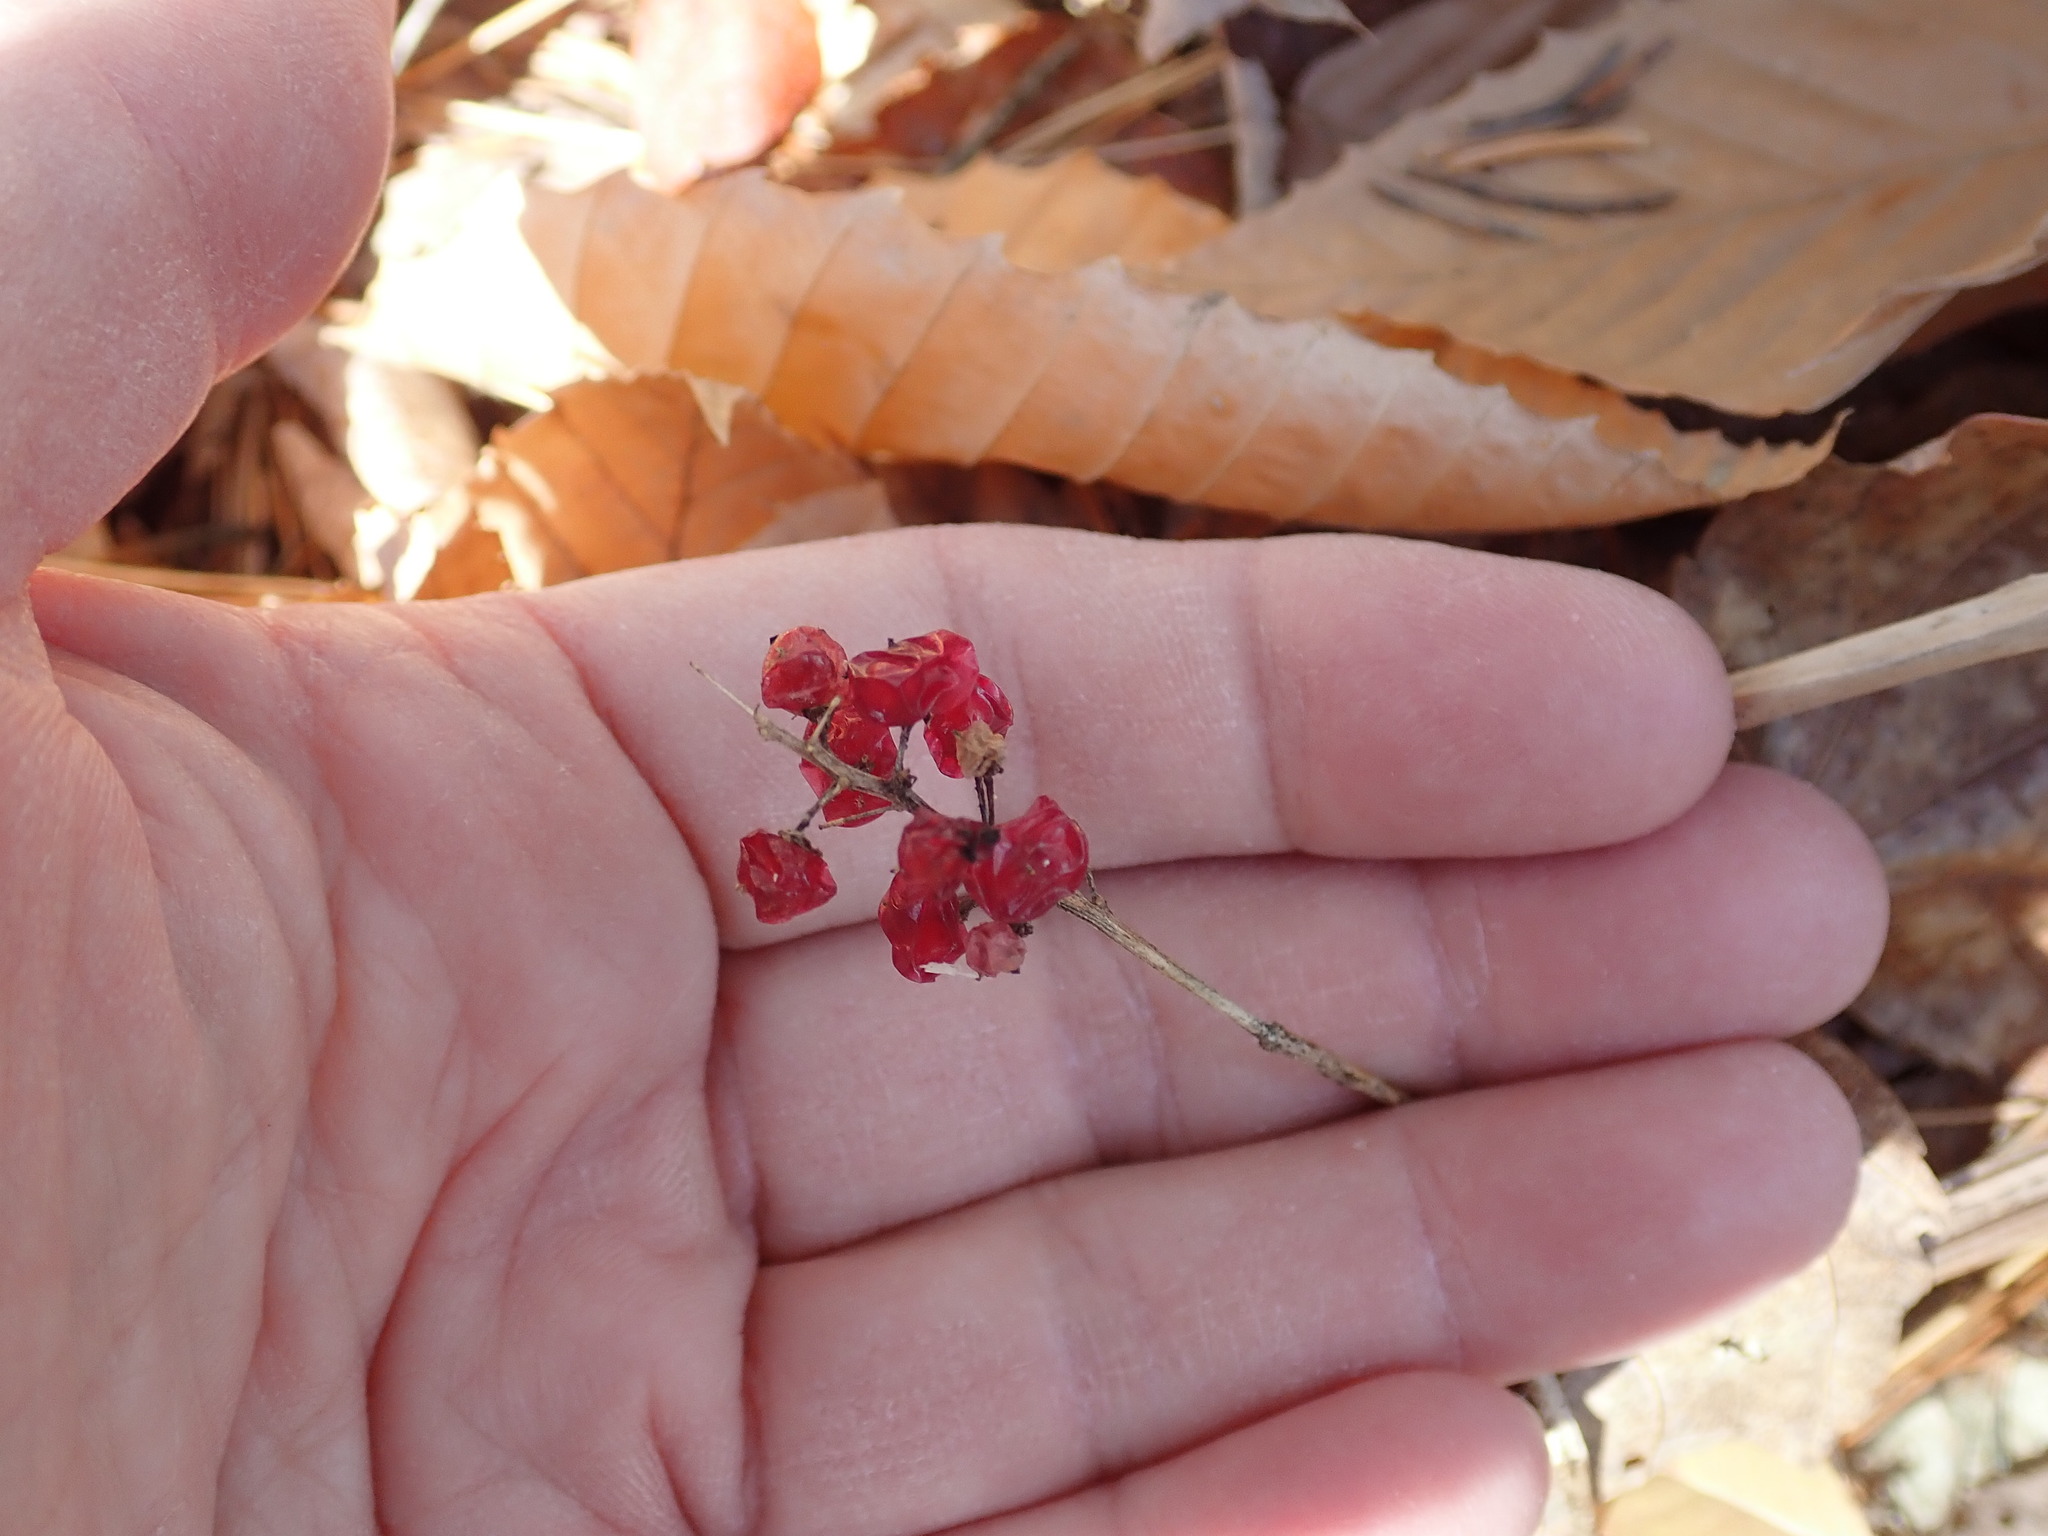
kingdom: Plantae
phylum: Tracheophyta
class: Liliopsida
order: Asparagales
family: Asparagaceae
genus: Maianthemum
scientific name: Maianthemum canadense
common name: False lily-of-the-valley
